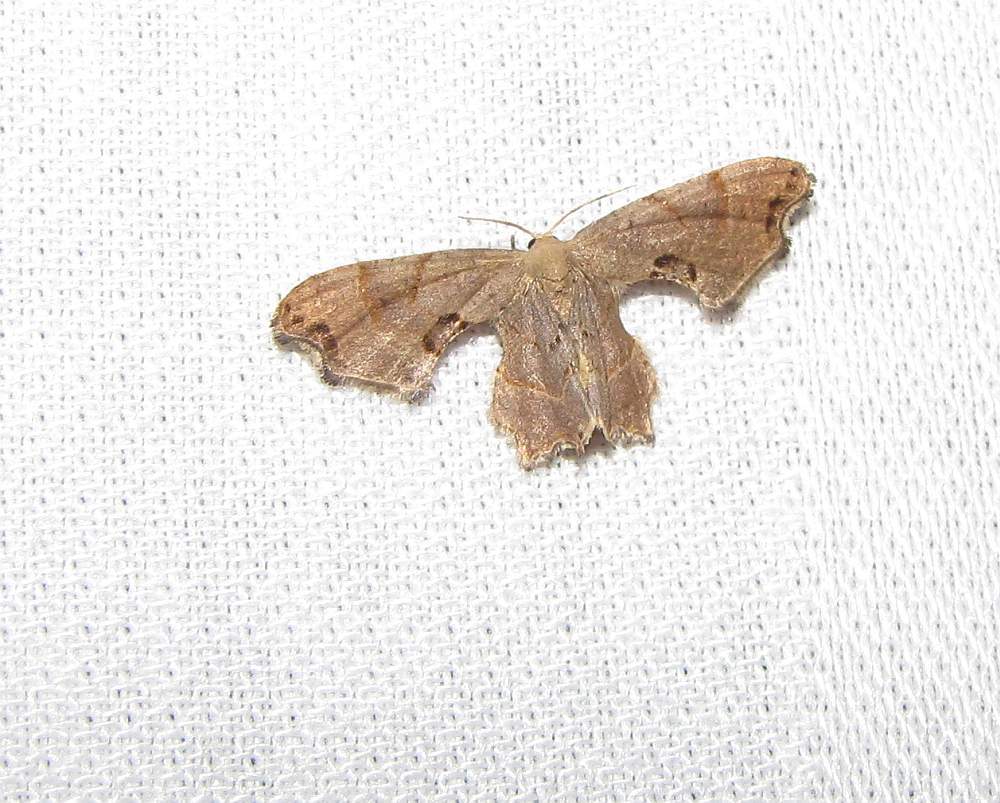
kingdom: Animalia
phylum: Arthropoda
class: Insecta
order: Lepidoptera
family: Uraniidae
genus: Epiplema
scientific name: Epiplema Calledapteryx dryopterata
